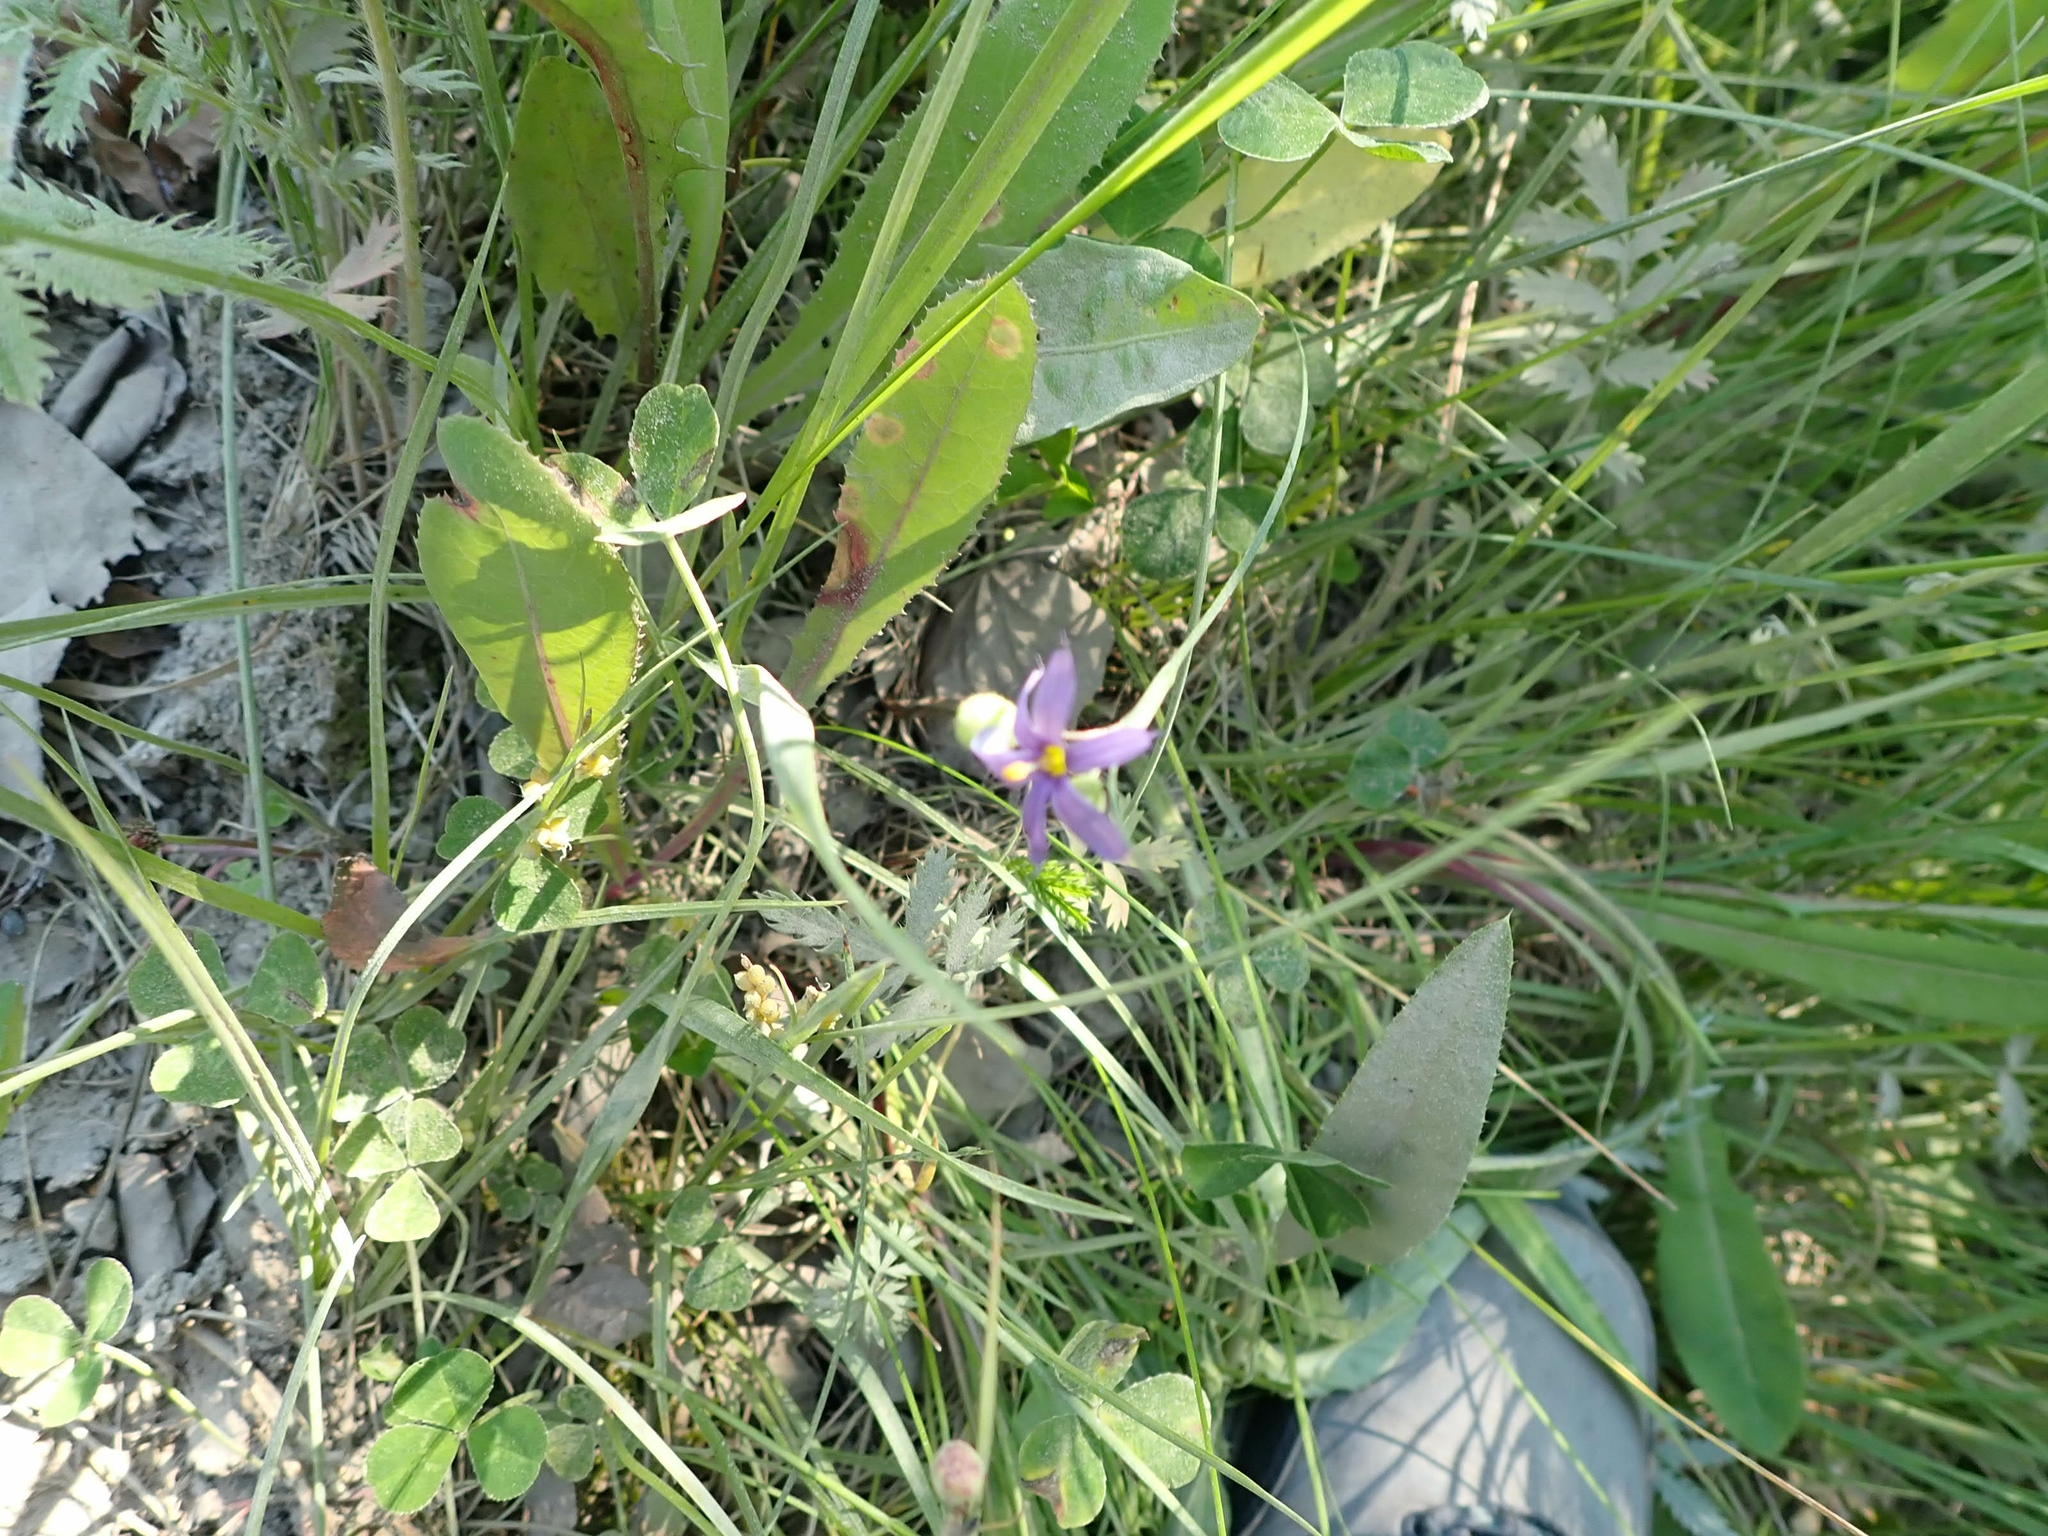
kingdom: Plantae
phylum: Tracheophyta
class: Liliopsida
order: Asparagales
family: Iridaceae
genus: Sisyrinchium
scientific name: Sisyrinchium montanum
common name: American blue-eyed-grass
